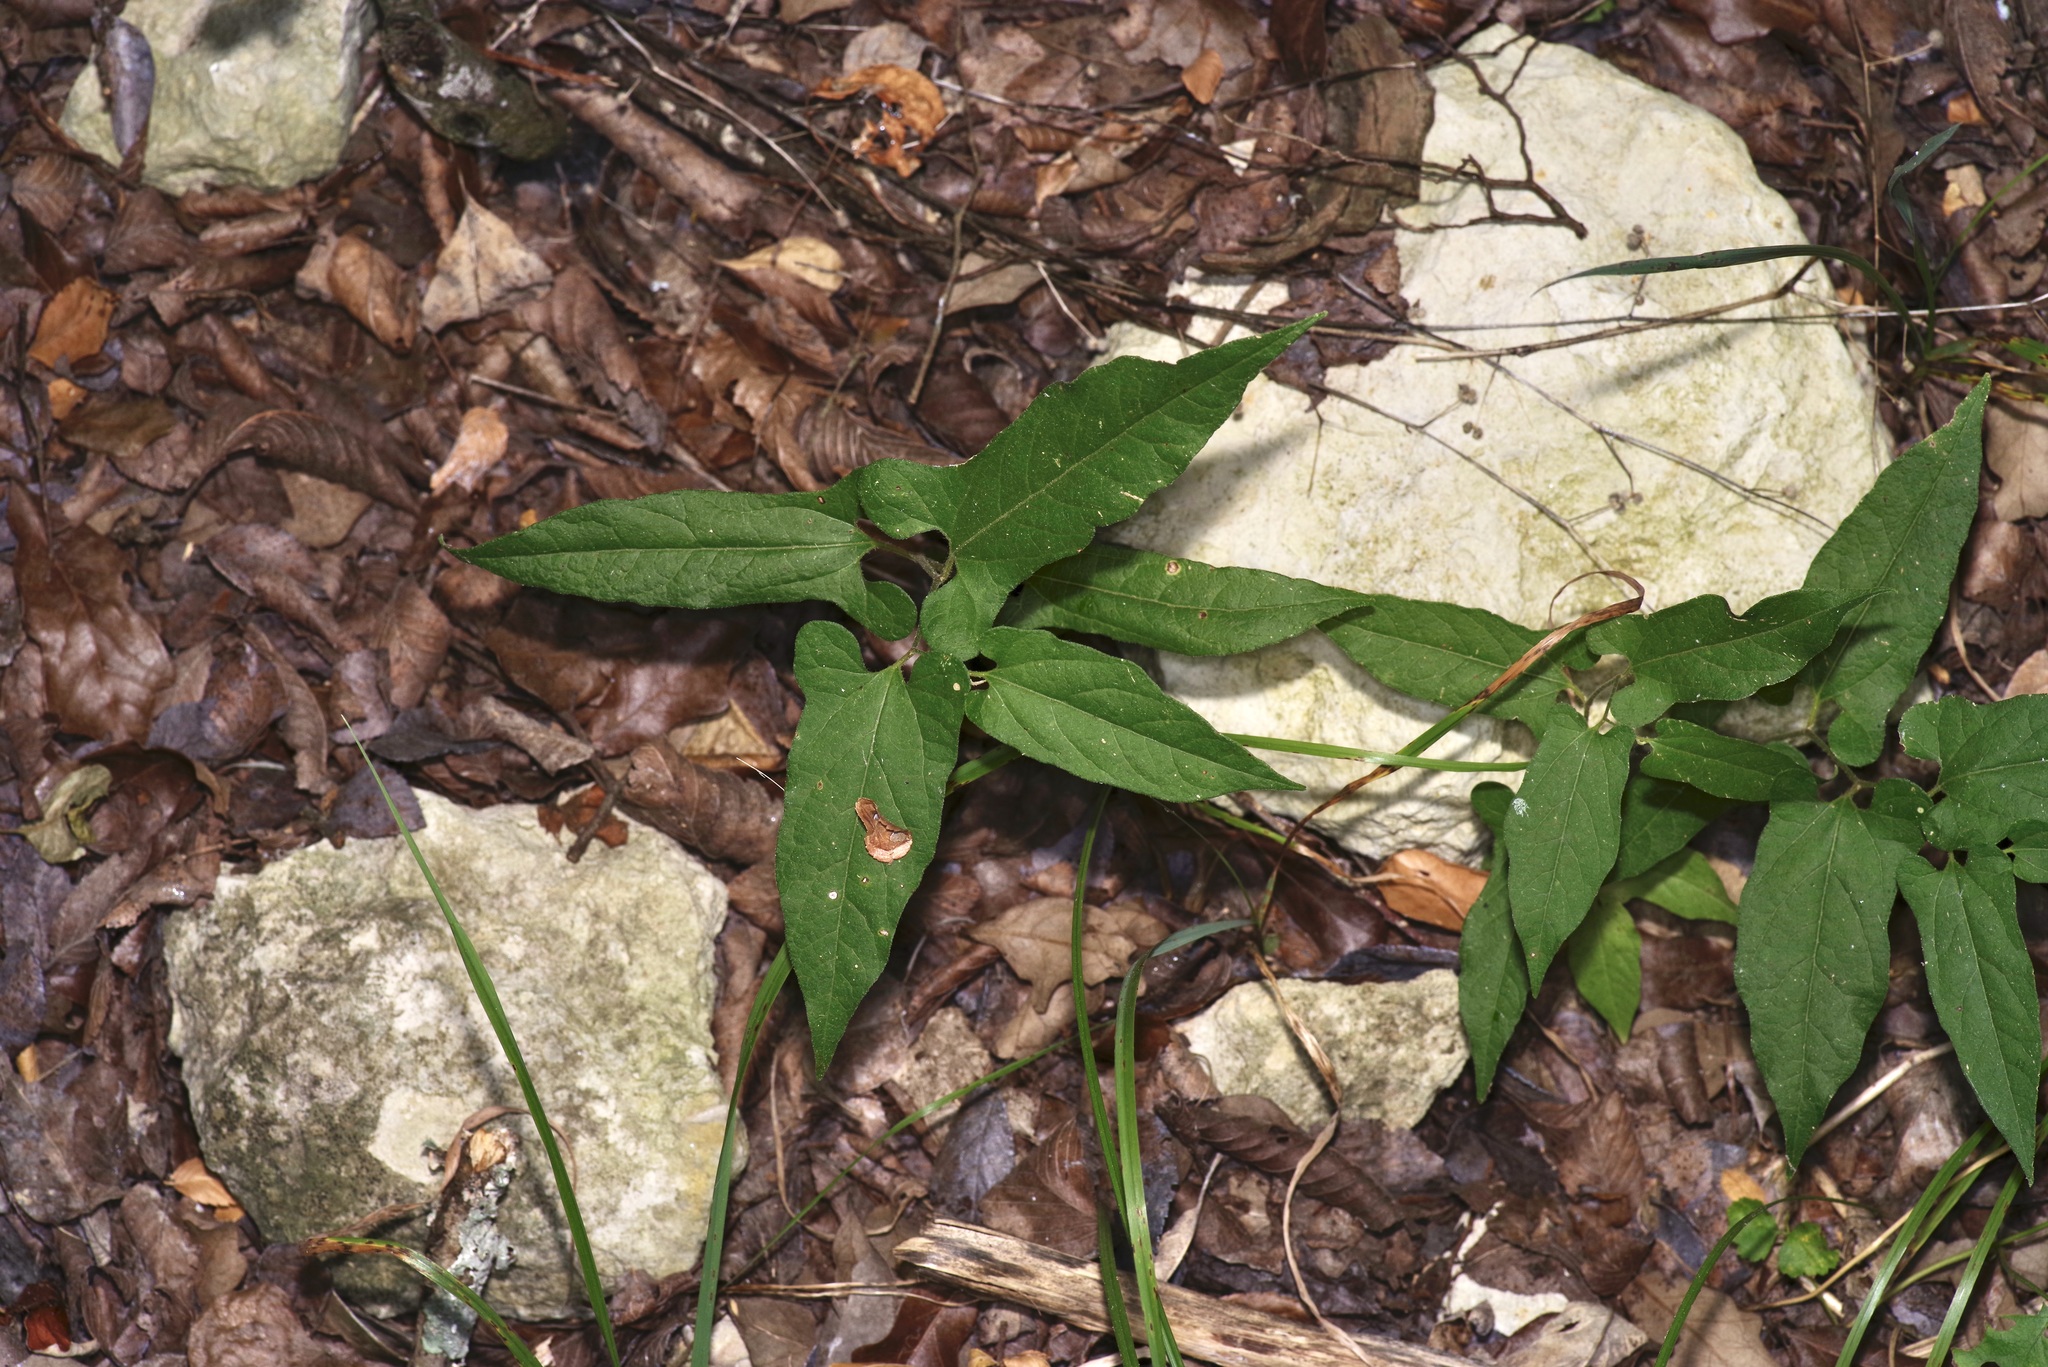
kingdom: Plantae
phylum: Tracheophyta
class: Magnoliopsida
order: Piperales
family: Aristolochiaceae
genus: Endodeca
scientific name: Endodeca serpentaria
